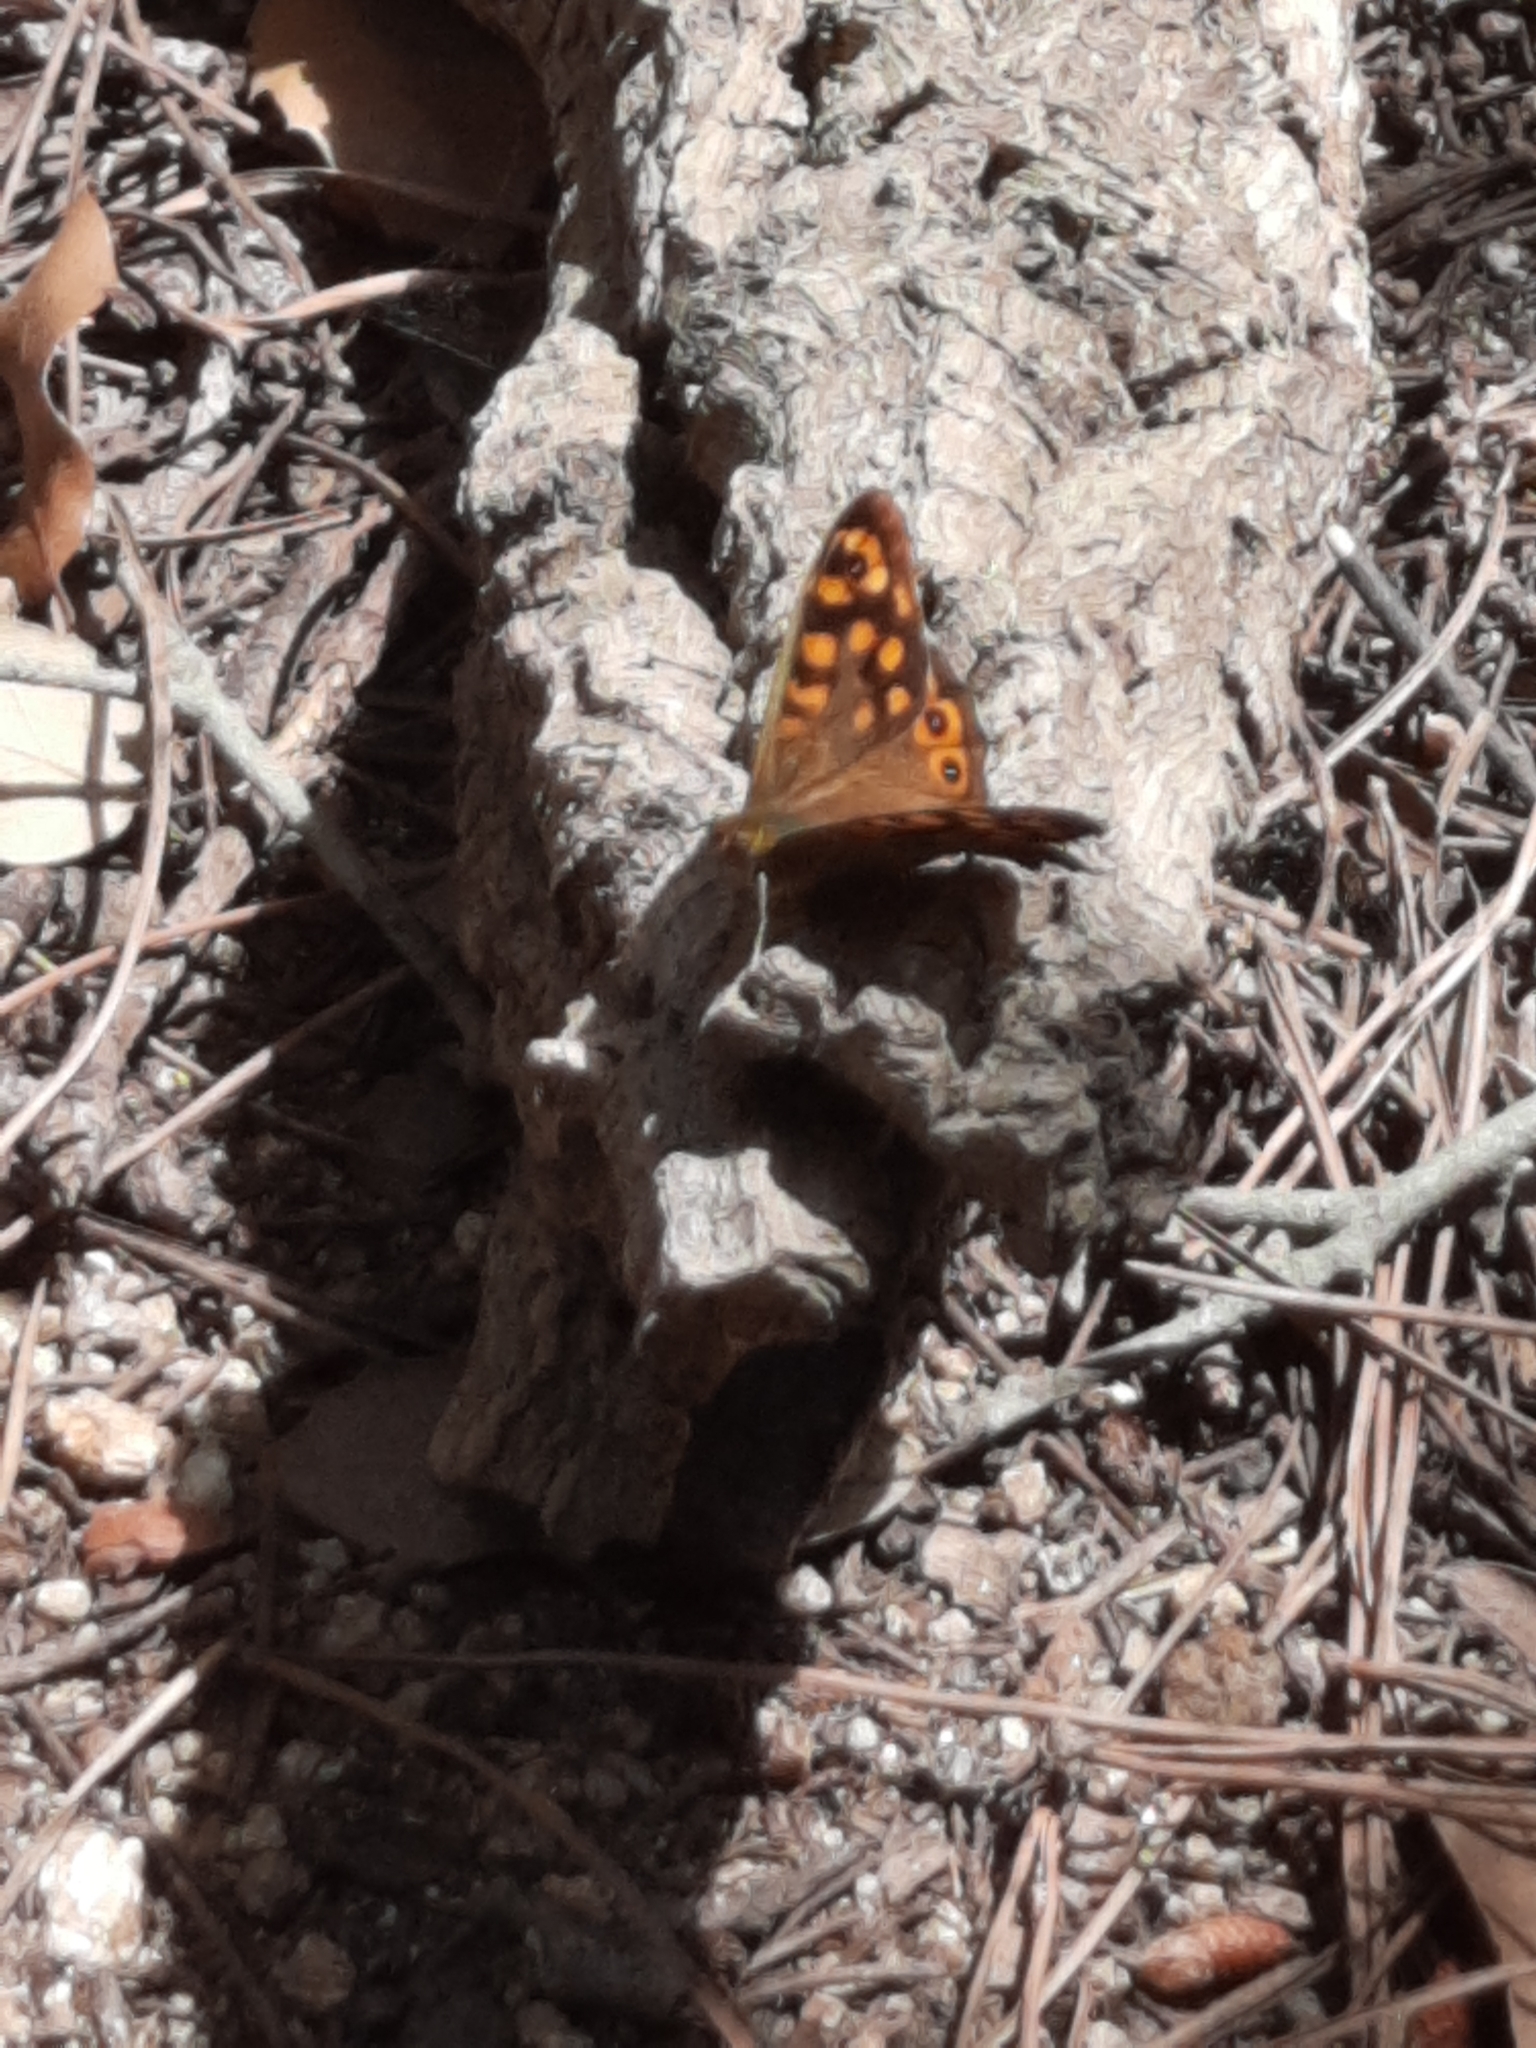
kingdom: Animalia
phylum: Arthropoda
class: Insecta
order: Lepidoptera
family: Nymphalidae
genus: Pararge
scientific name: Pararge aegeria
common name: Speckled wood
